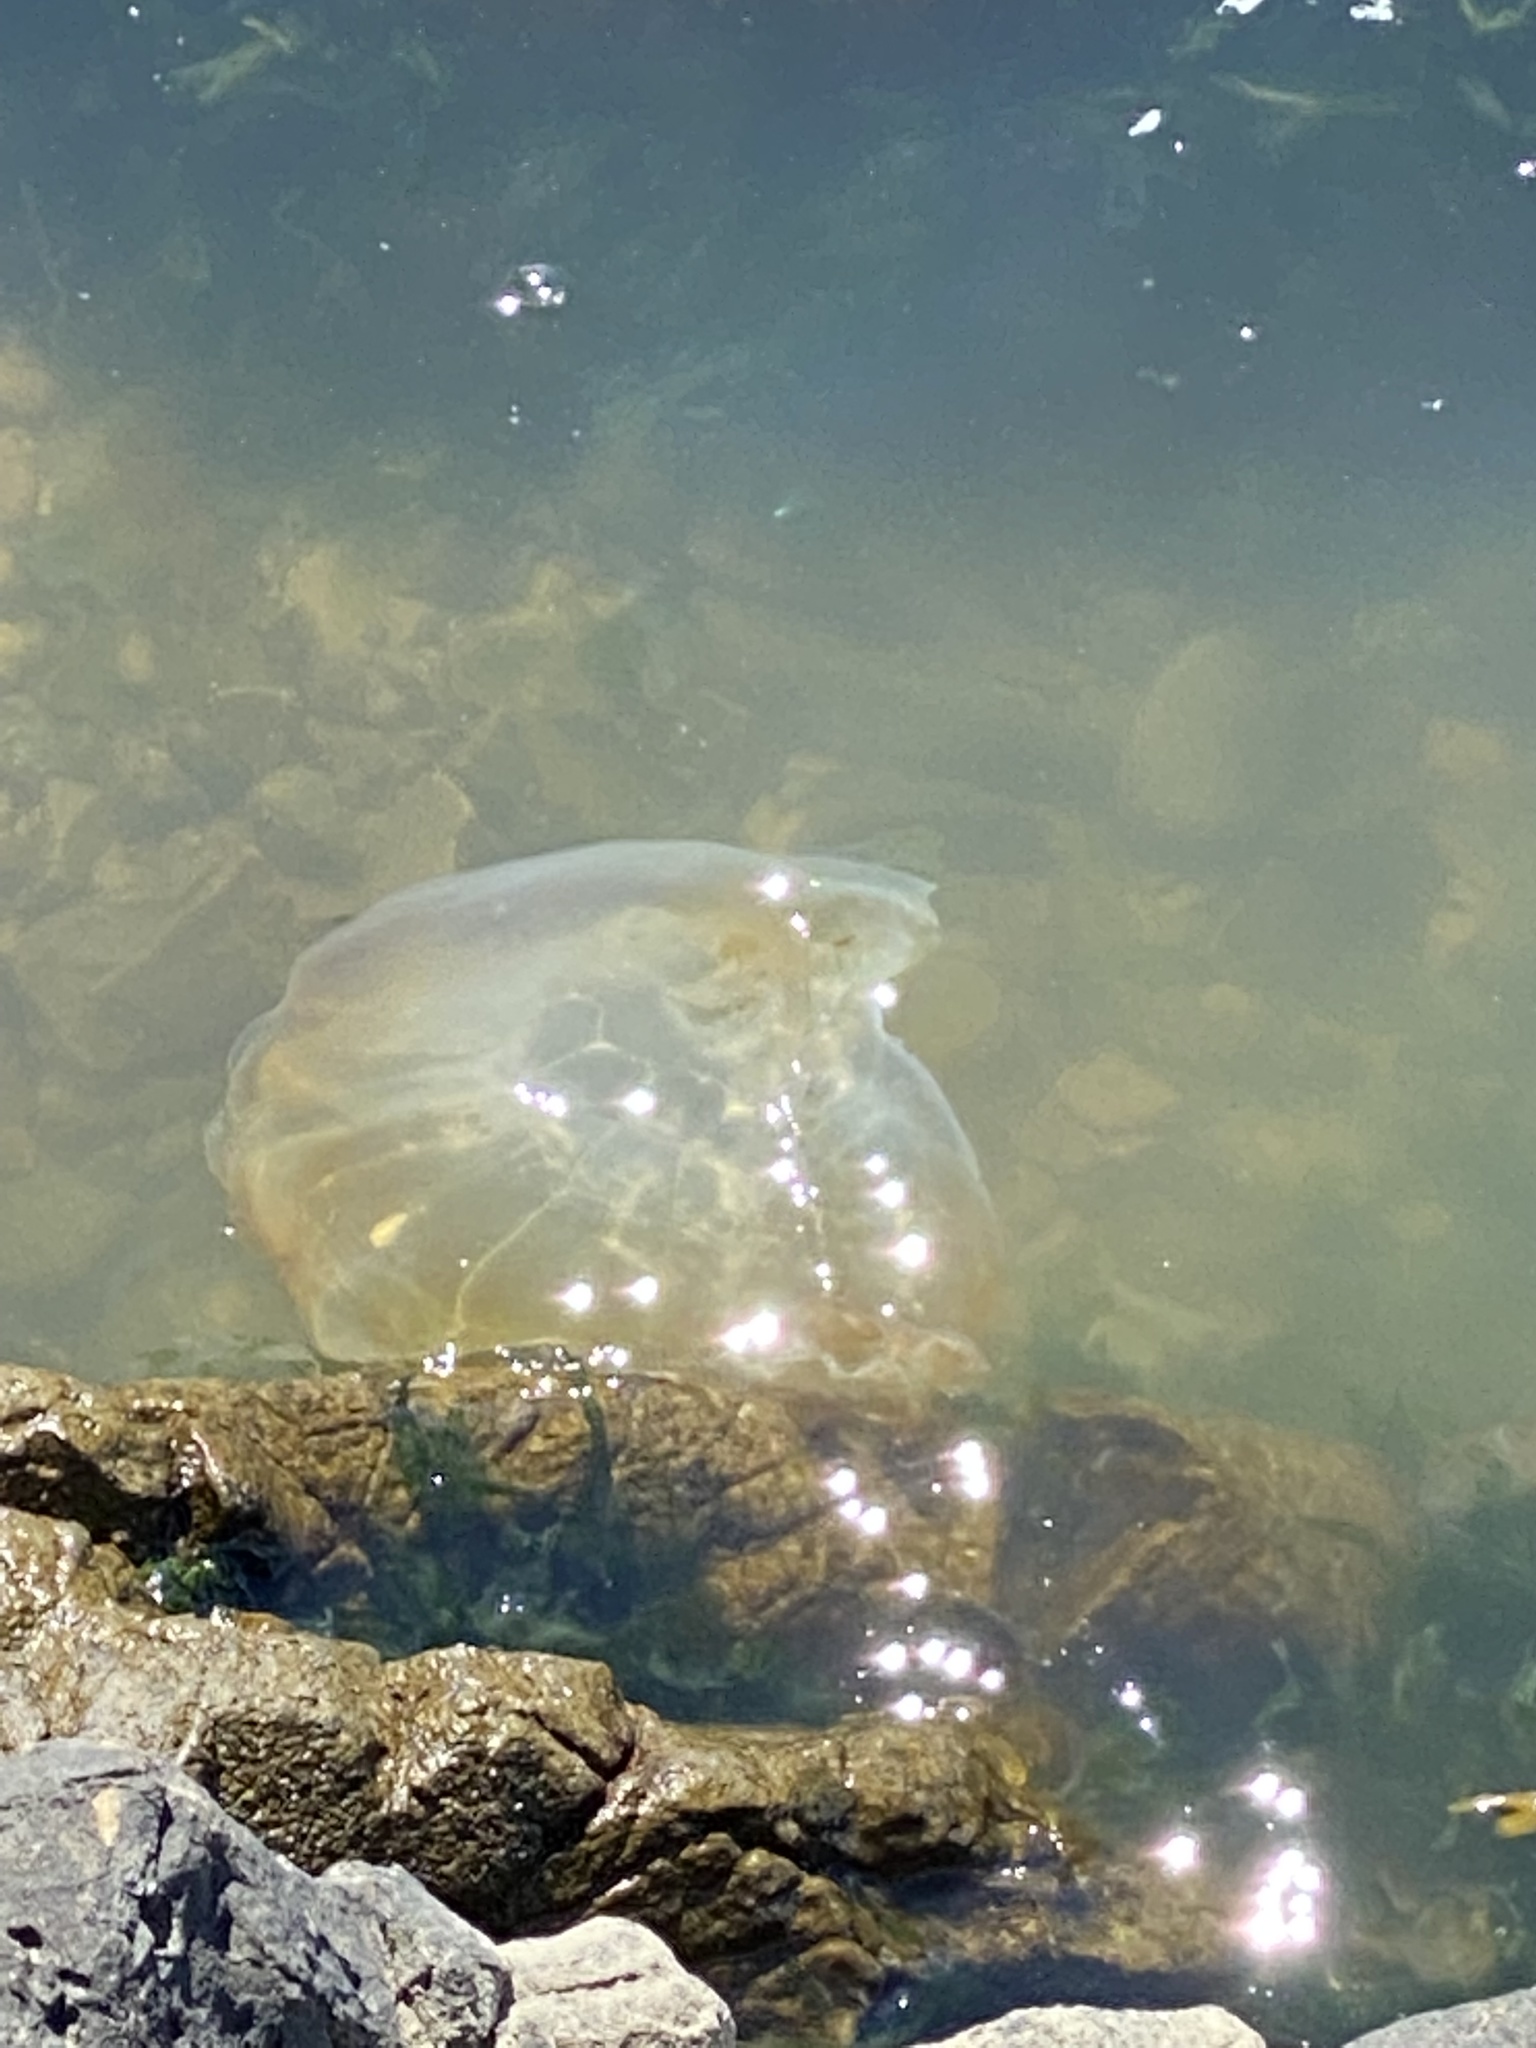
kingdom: Animalia
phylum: Cnidaria
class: Scyphozoa
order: Semaeostomeae
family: Pelagiidae
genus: Chrysaora
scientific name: Chrysaora fuscescens
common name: Sea nettle
